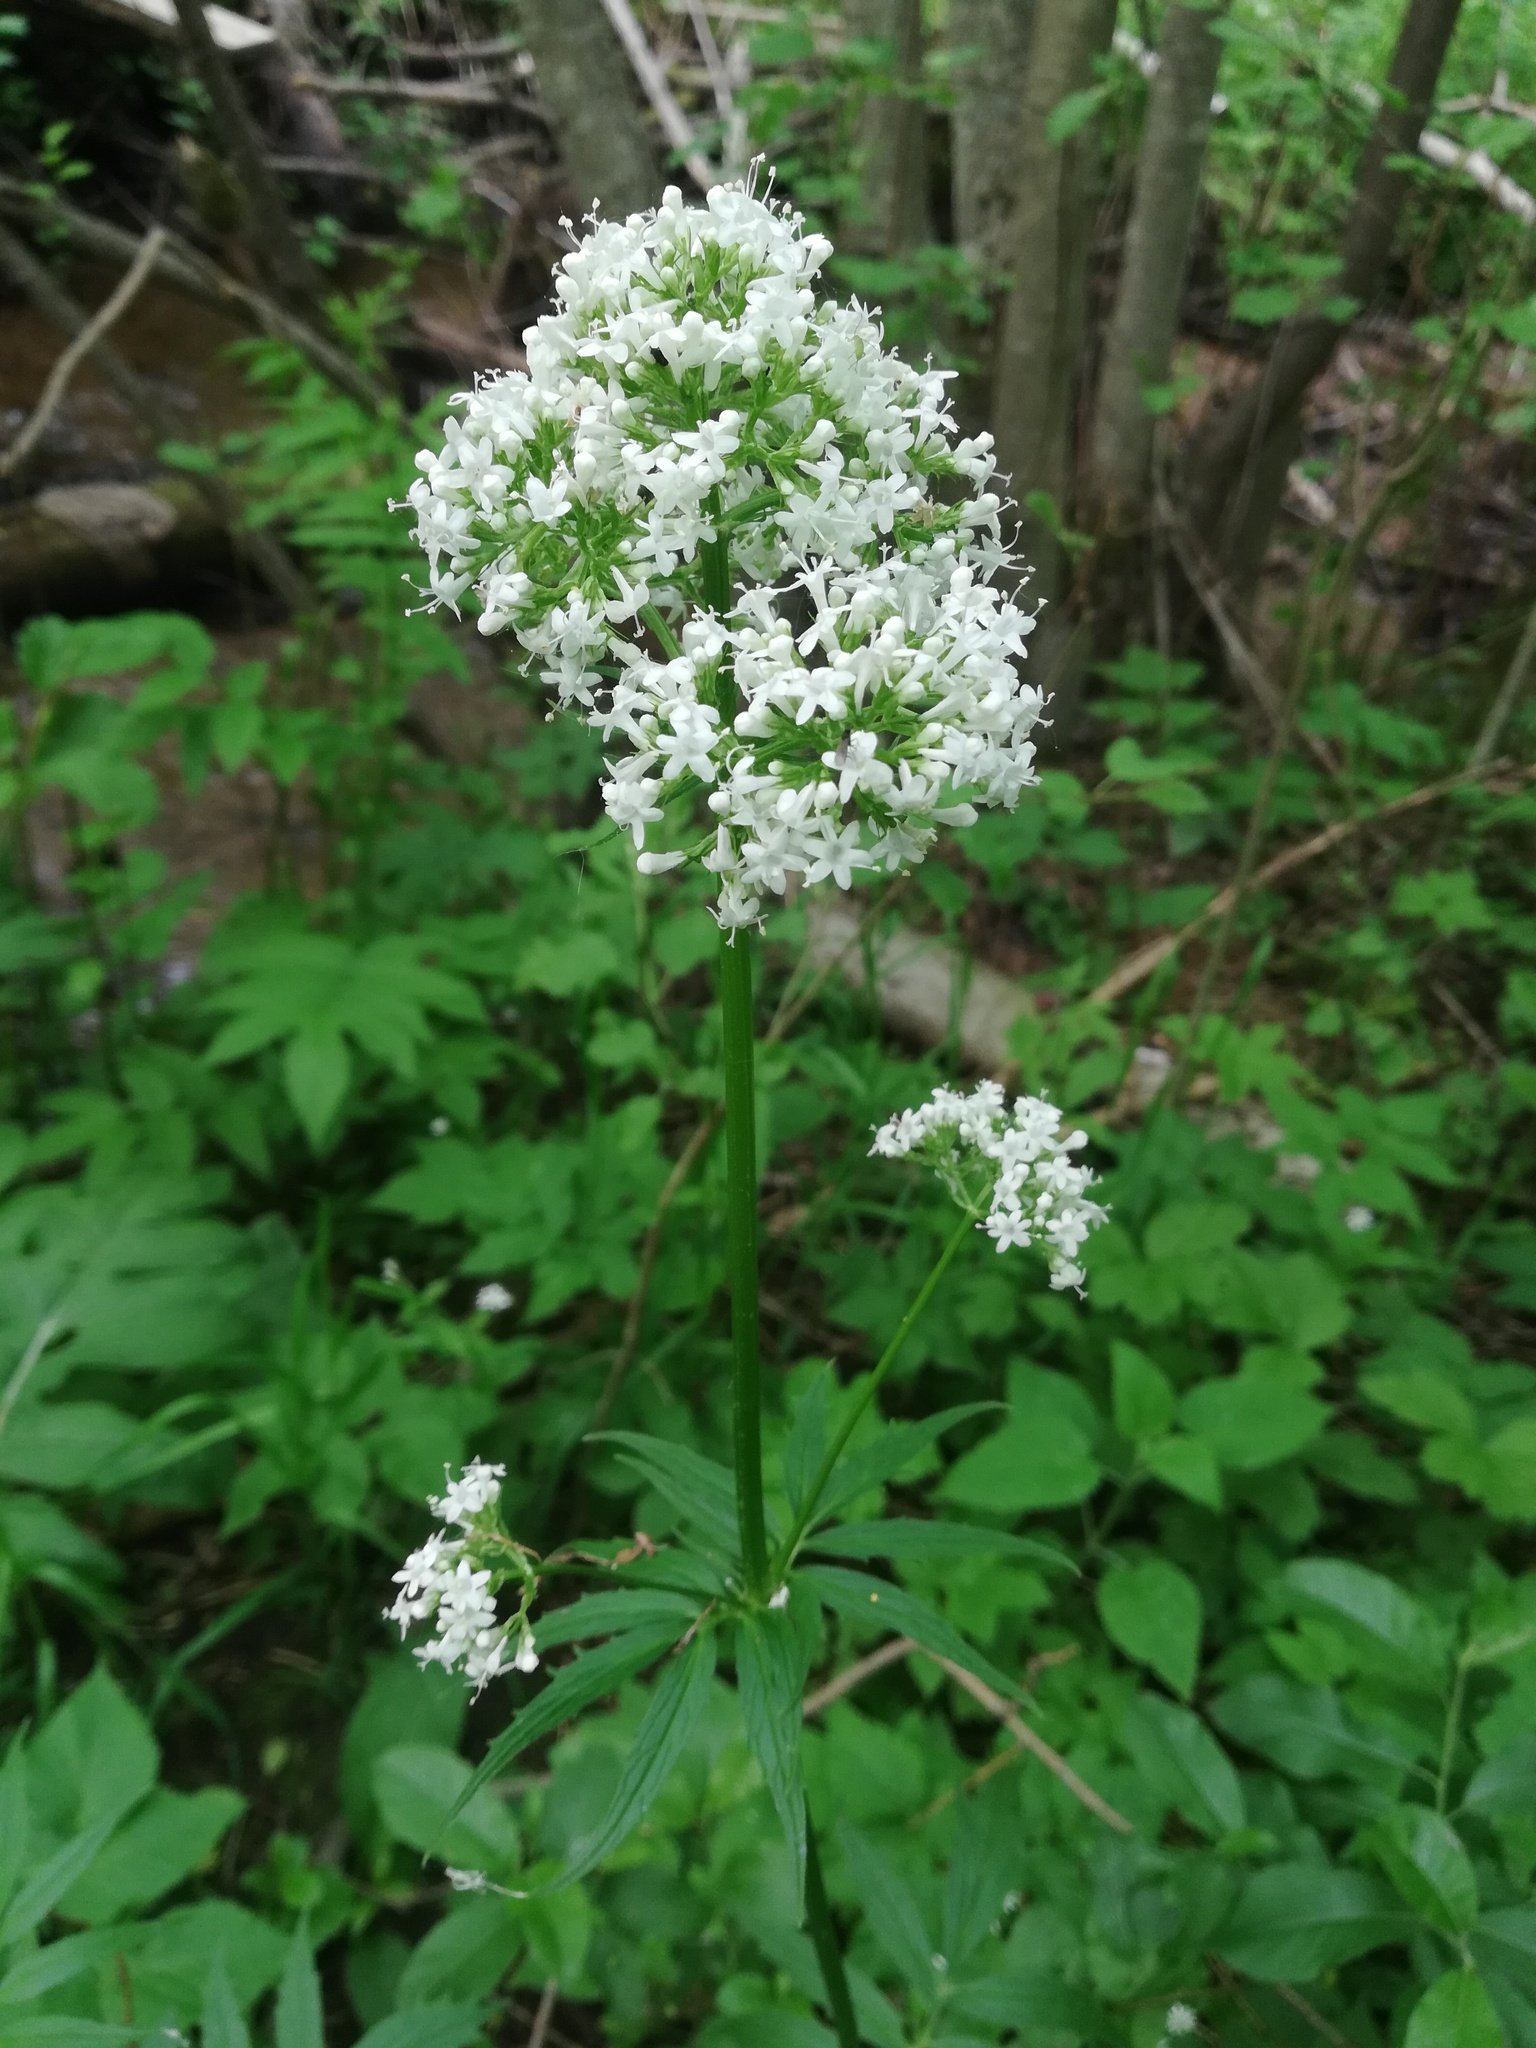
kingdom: Plantae
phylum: Tracheophyta
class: Magnoliopsida
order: Dipsacales
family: Caprifoliaceae
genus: Valeriana
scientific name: Valeriana officinalis
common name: Common valerian
